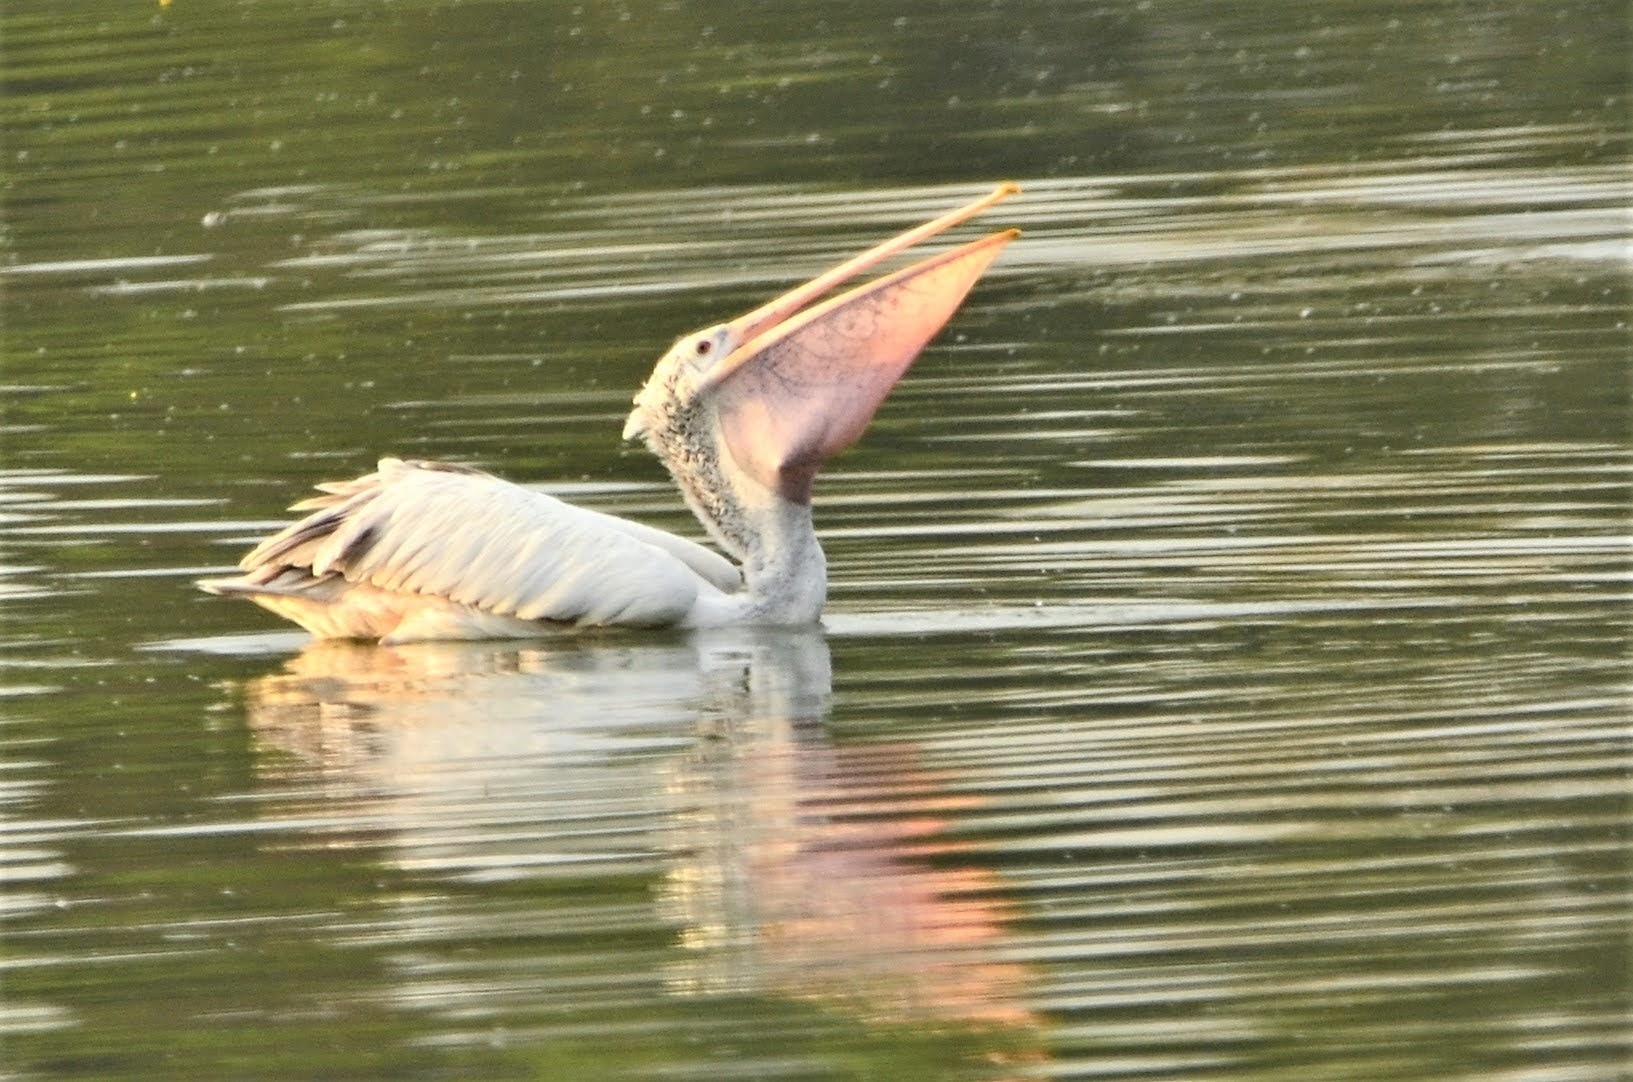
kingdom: Animalia
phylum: Chordata
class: Aves
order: Pelecaniformes
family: Pelecanidae
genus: Pelecanus
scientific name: Pelecanus philippensis
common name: Spot-billed pelican
